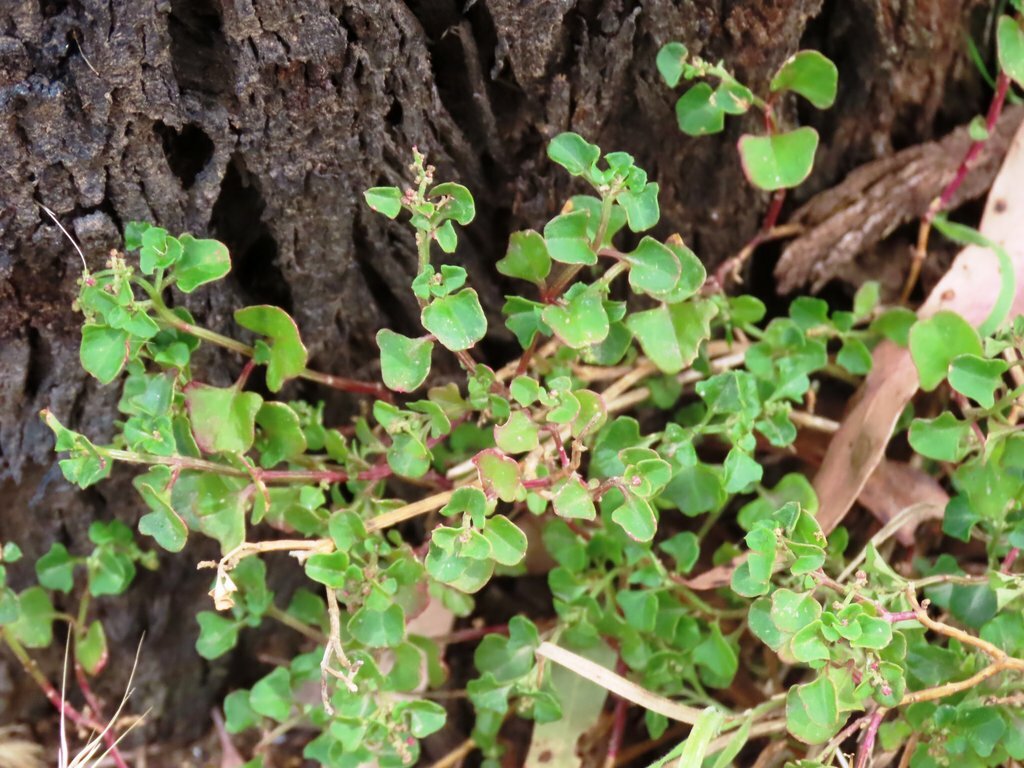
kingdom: Plantae
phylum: Tracheophyta
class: Magnoliopsida
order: Caryophyllales
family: Amaranthaceae
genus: Chenopodium
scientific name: Chenopodium robertianum
